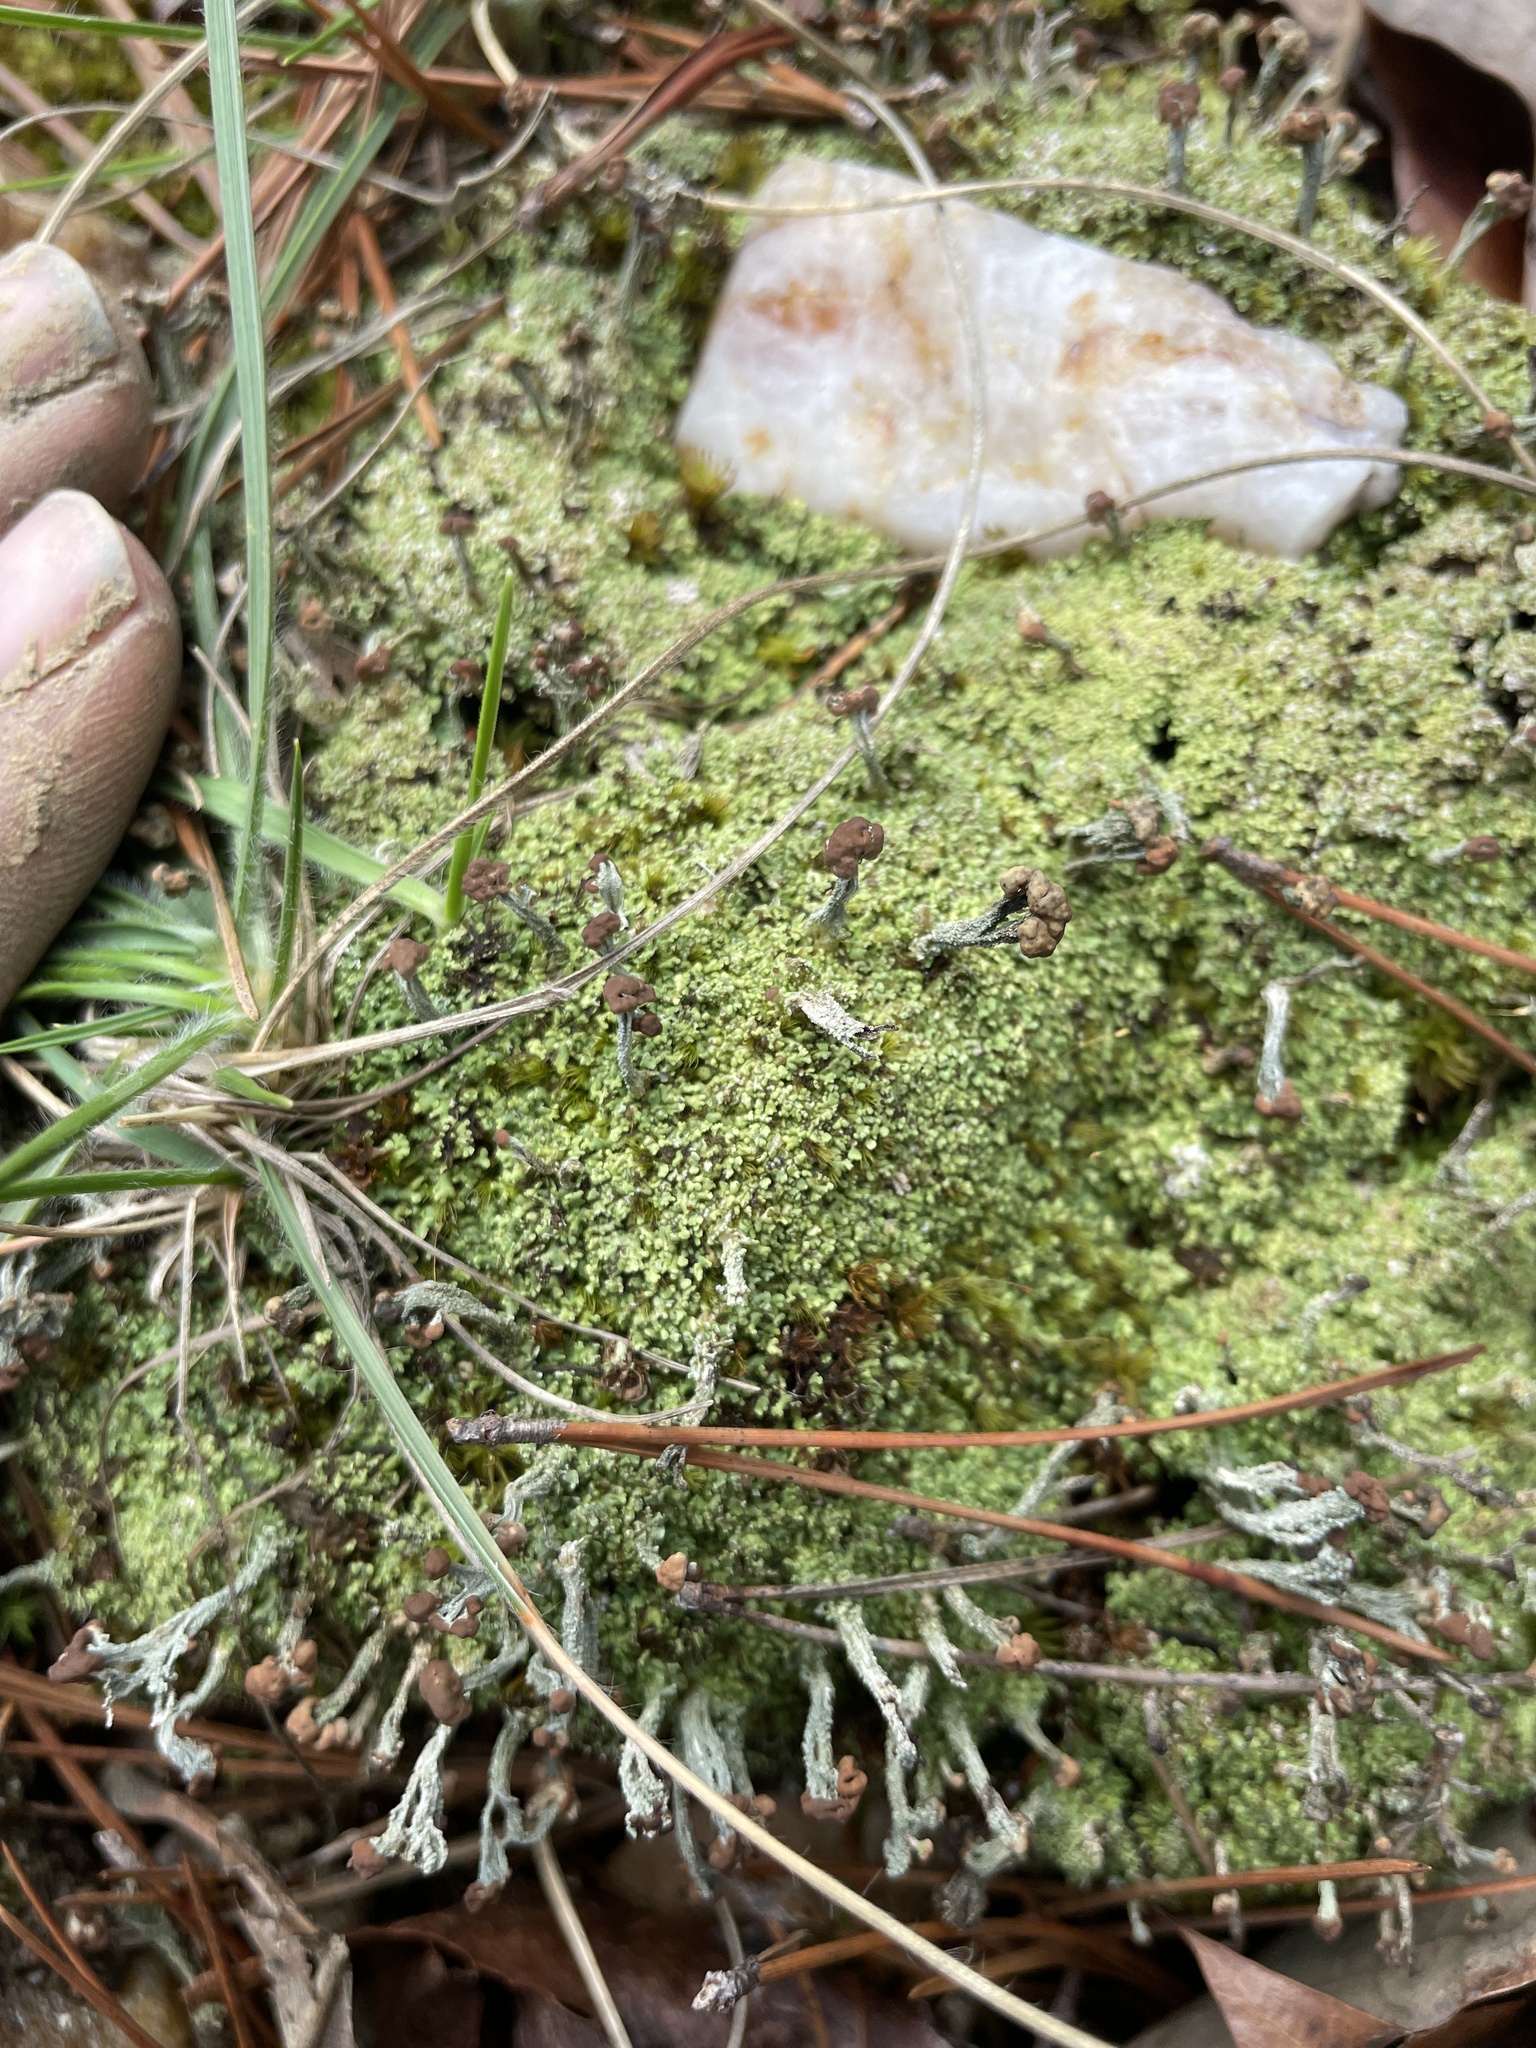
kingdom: Fungi
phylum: Ascomycota
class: Lecanoromycetes
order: Lecanorales
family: Cladoniaceae
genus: Cladonia
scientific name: Cladonia peziziformis
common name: Cup lichen
